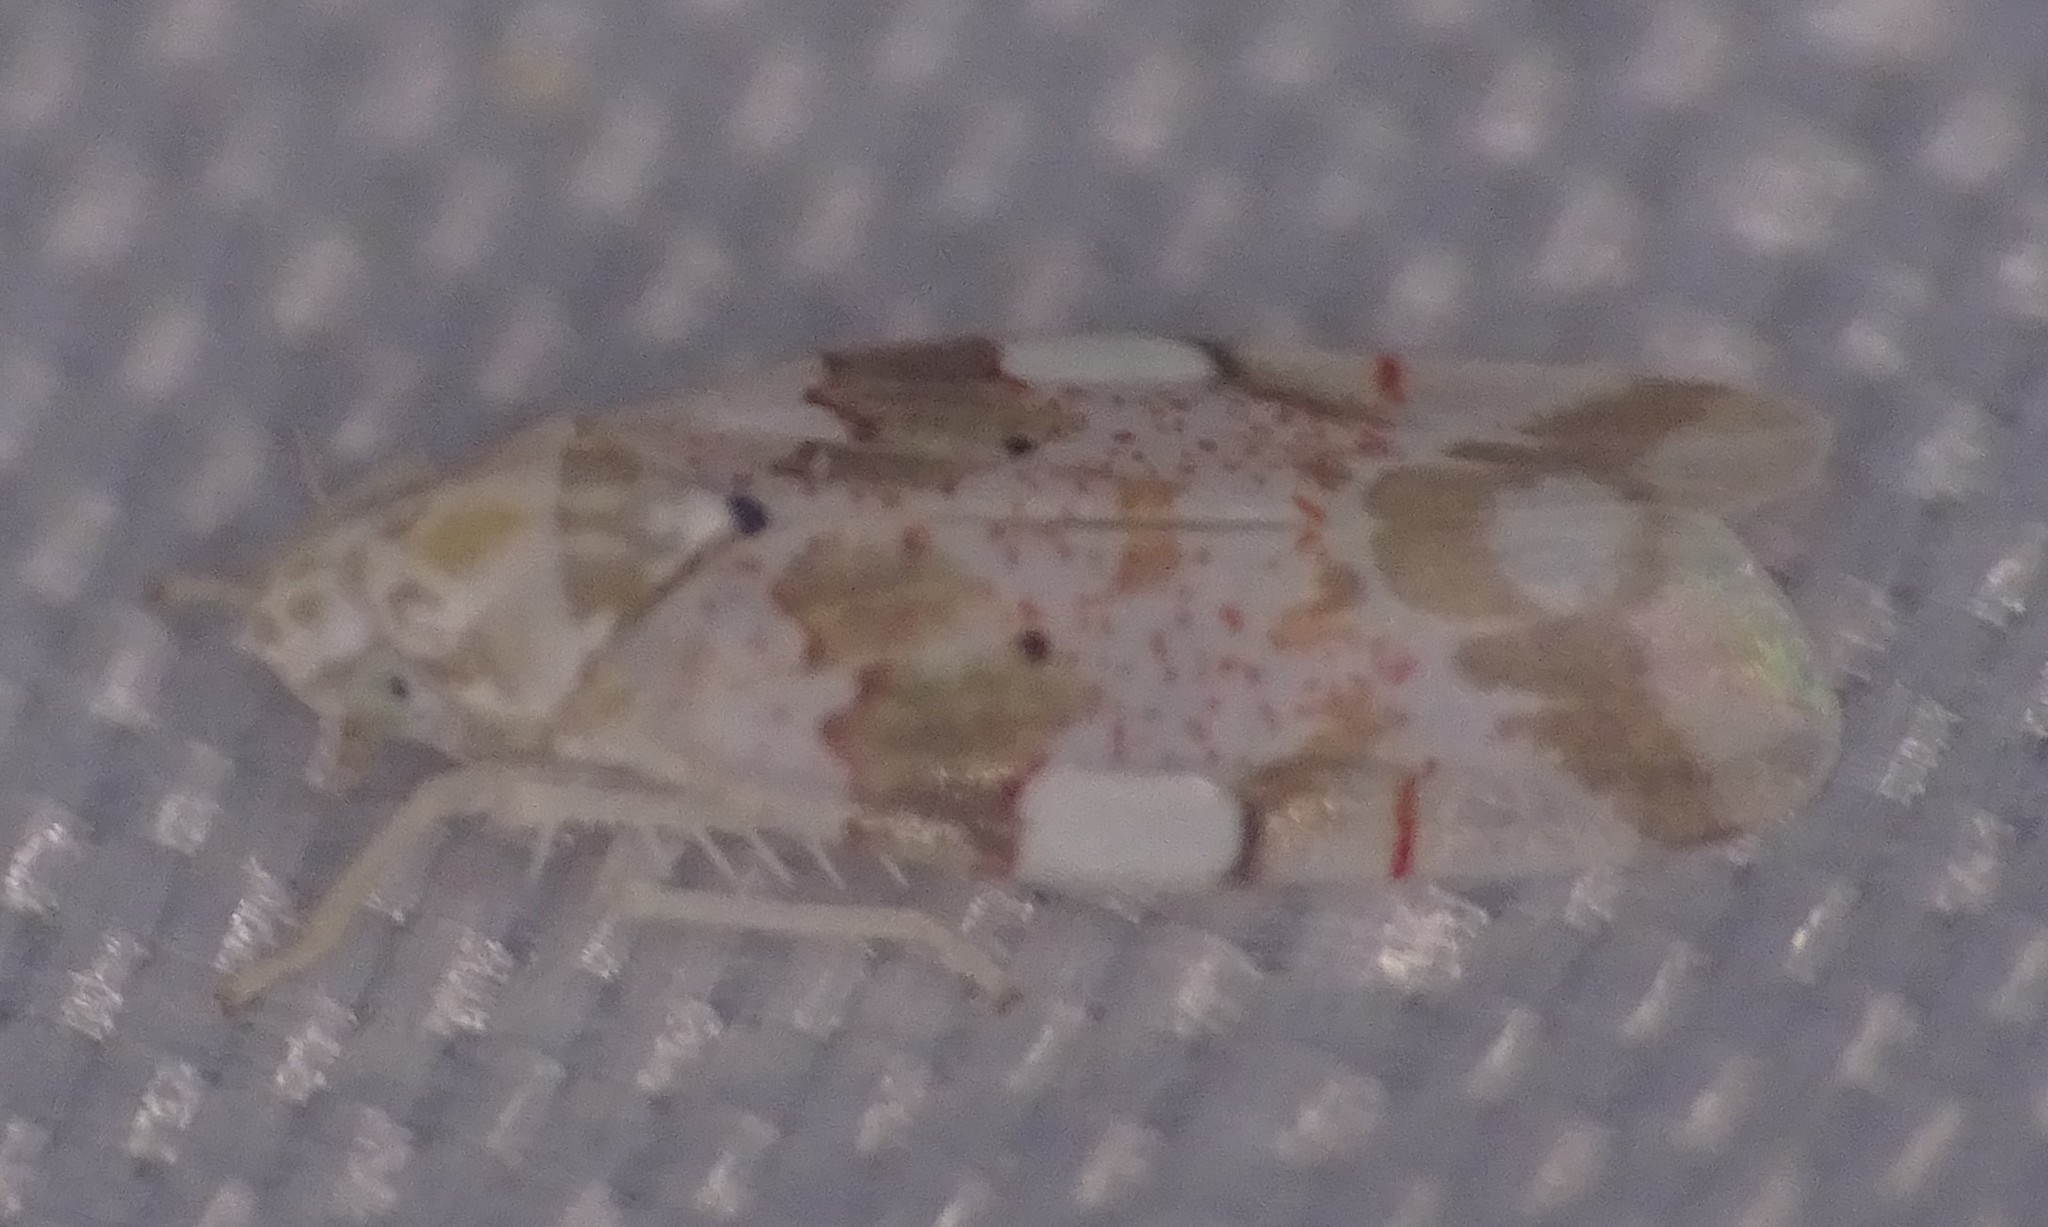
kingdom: Animalia
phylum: Arthropoda
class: Insecta
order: Hemiptera
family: Cicadellidae
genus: Hymetta
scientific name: Hymetta balteata
